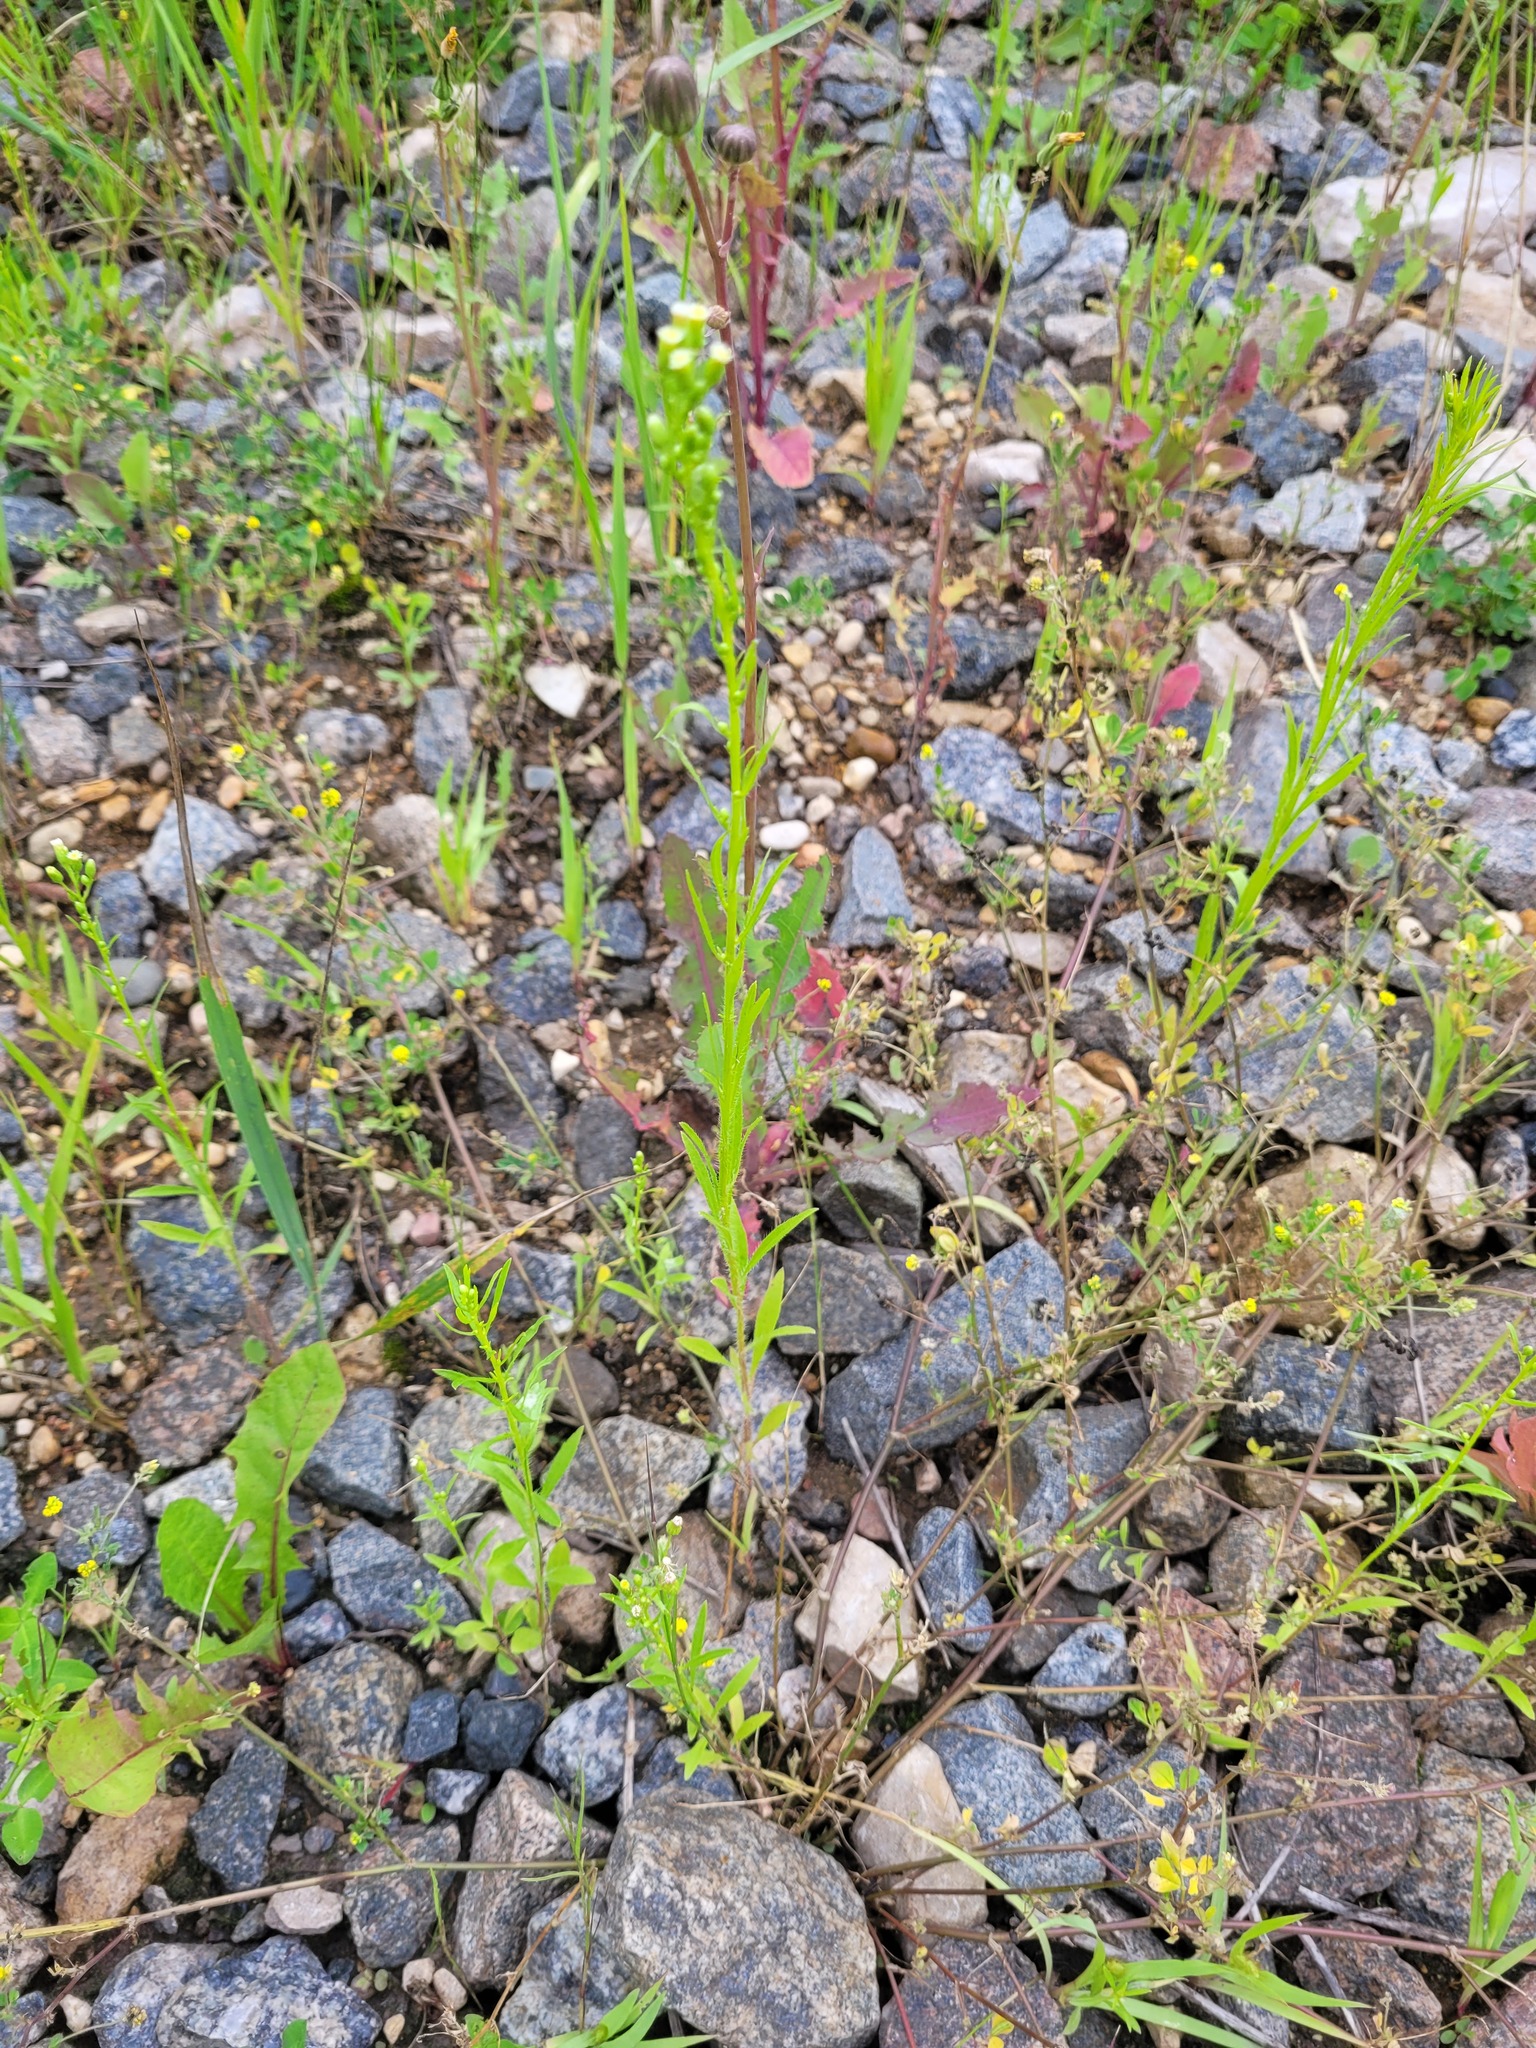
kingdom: Plantae
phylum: Tracheophyta
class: Magnoliopsida
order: Asterales
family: Asteraceae
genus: Erigeron
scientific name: Erigeron canadensis
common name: Canadian fleabane
